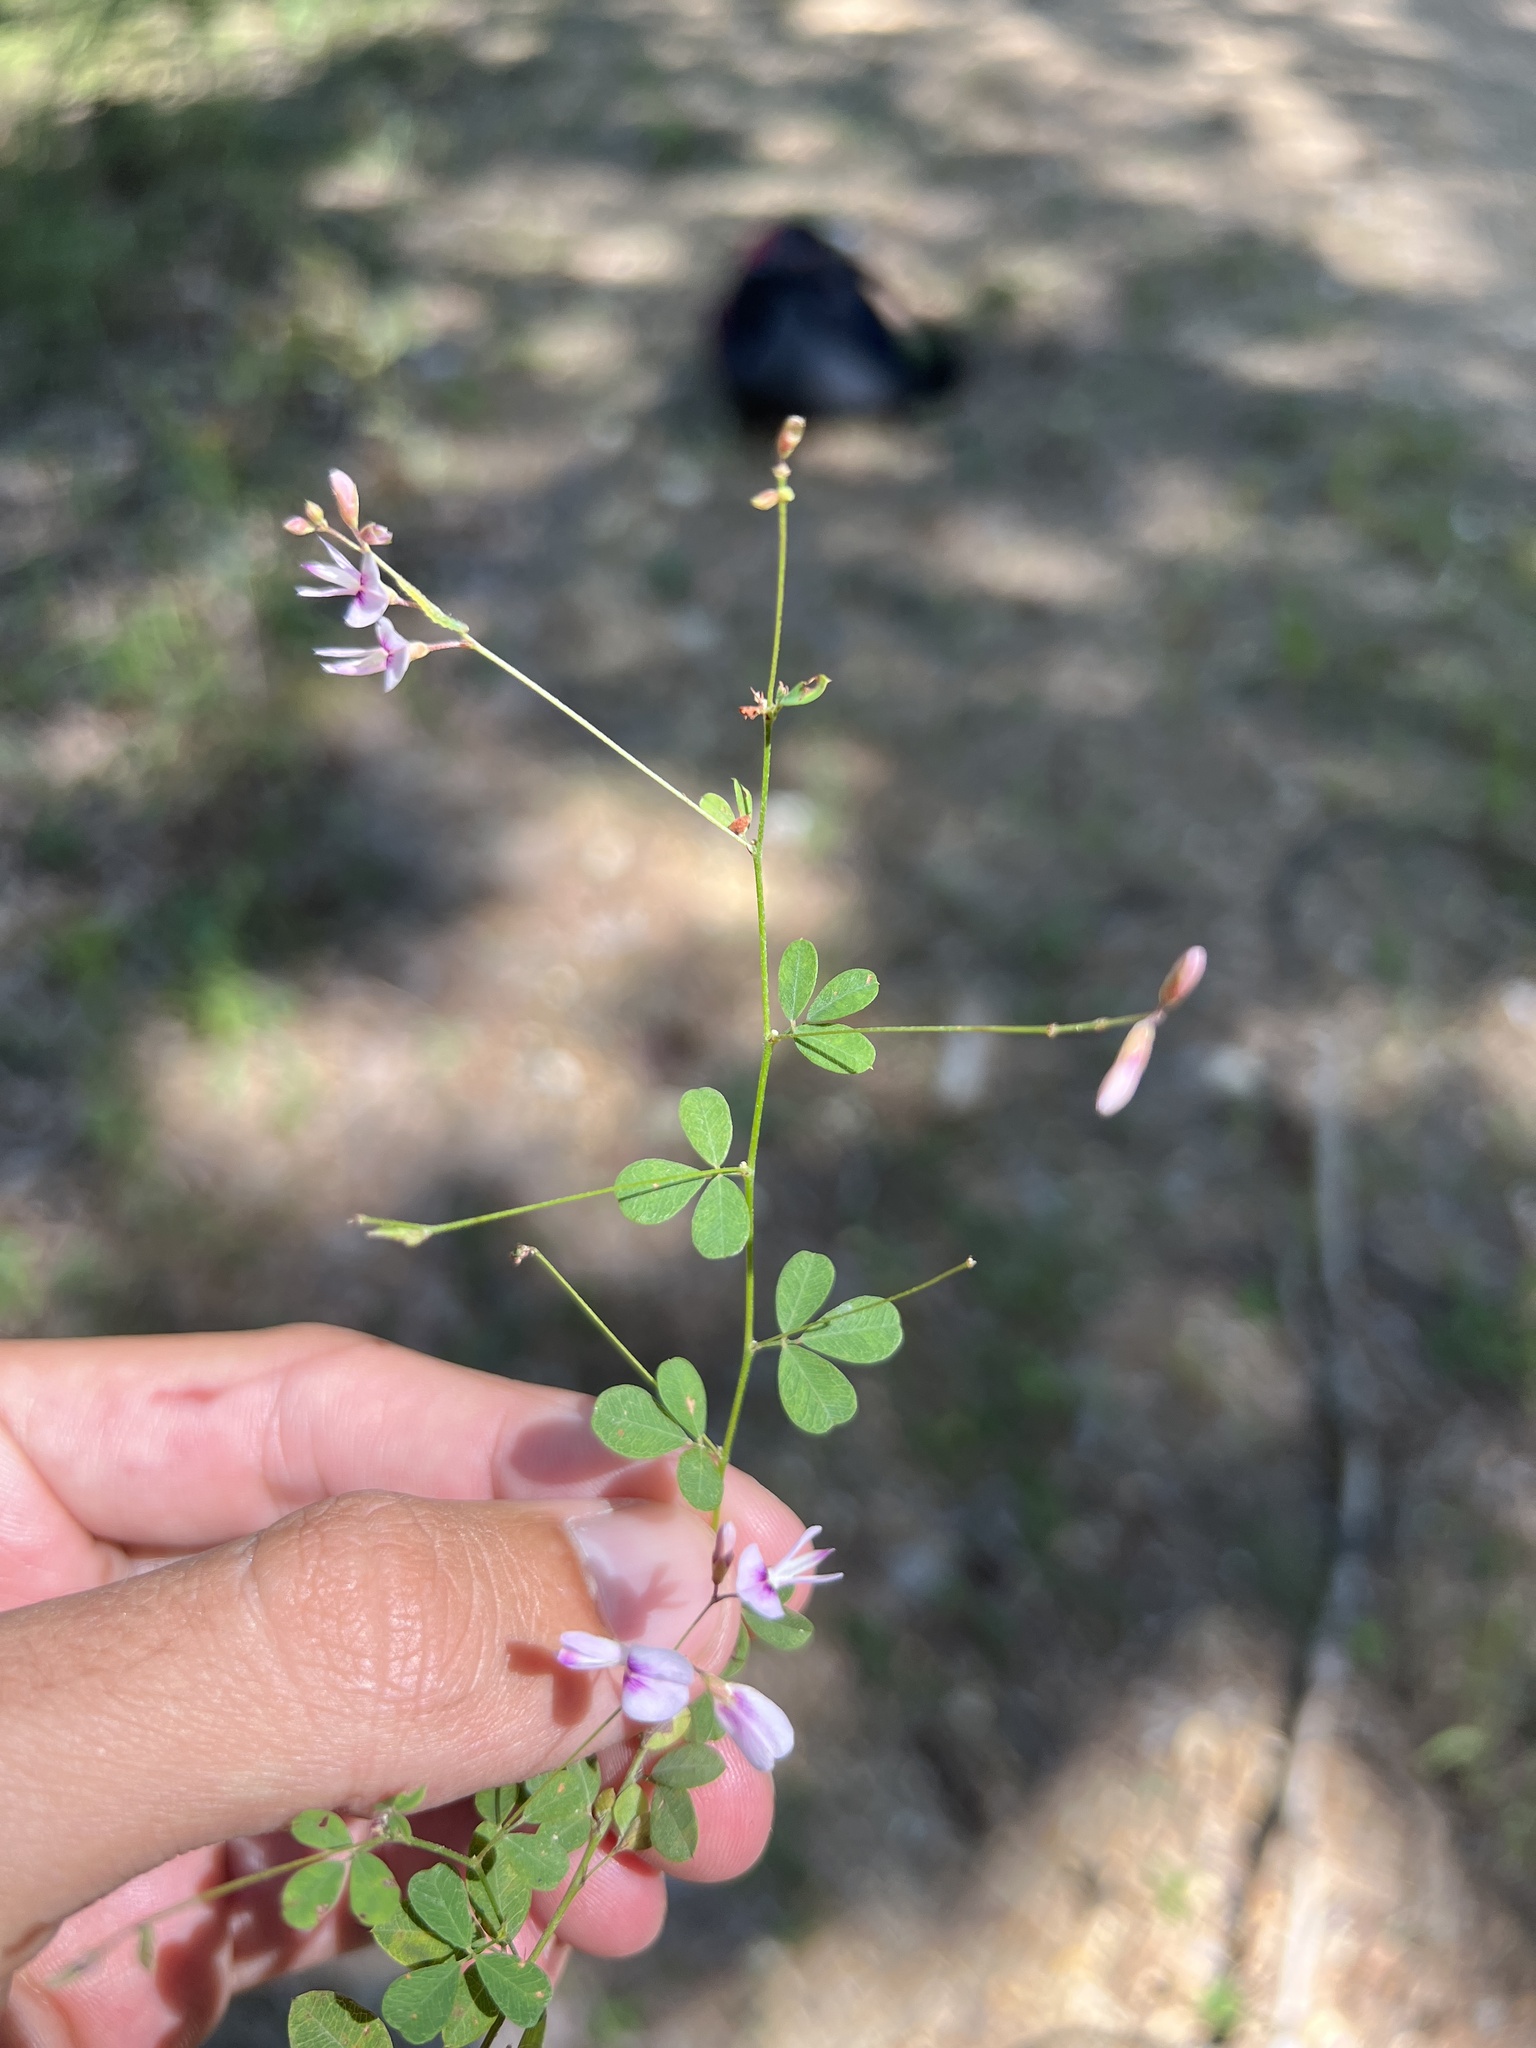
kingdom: Plantae
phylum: Tracheophyta
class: Magnoliopsida
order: Fabales
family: Fabaceae
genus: Lespedeza
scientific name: Lespedeza repens
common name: Creeping bush-clover
